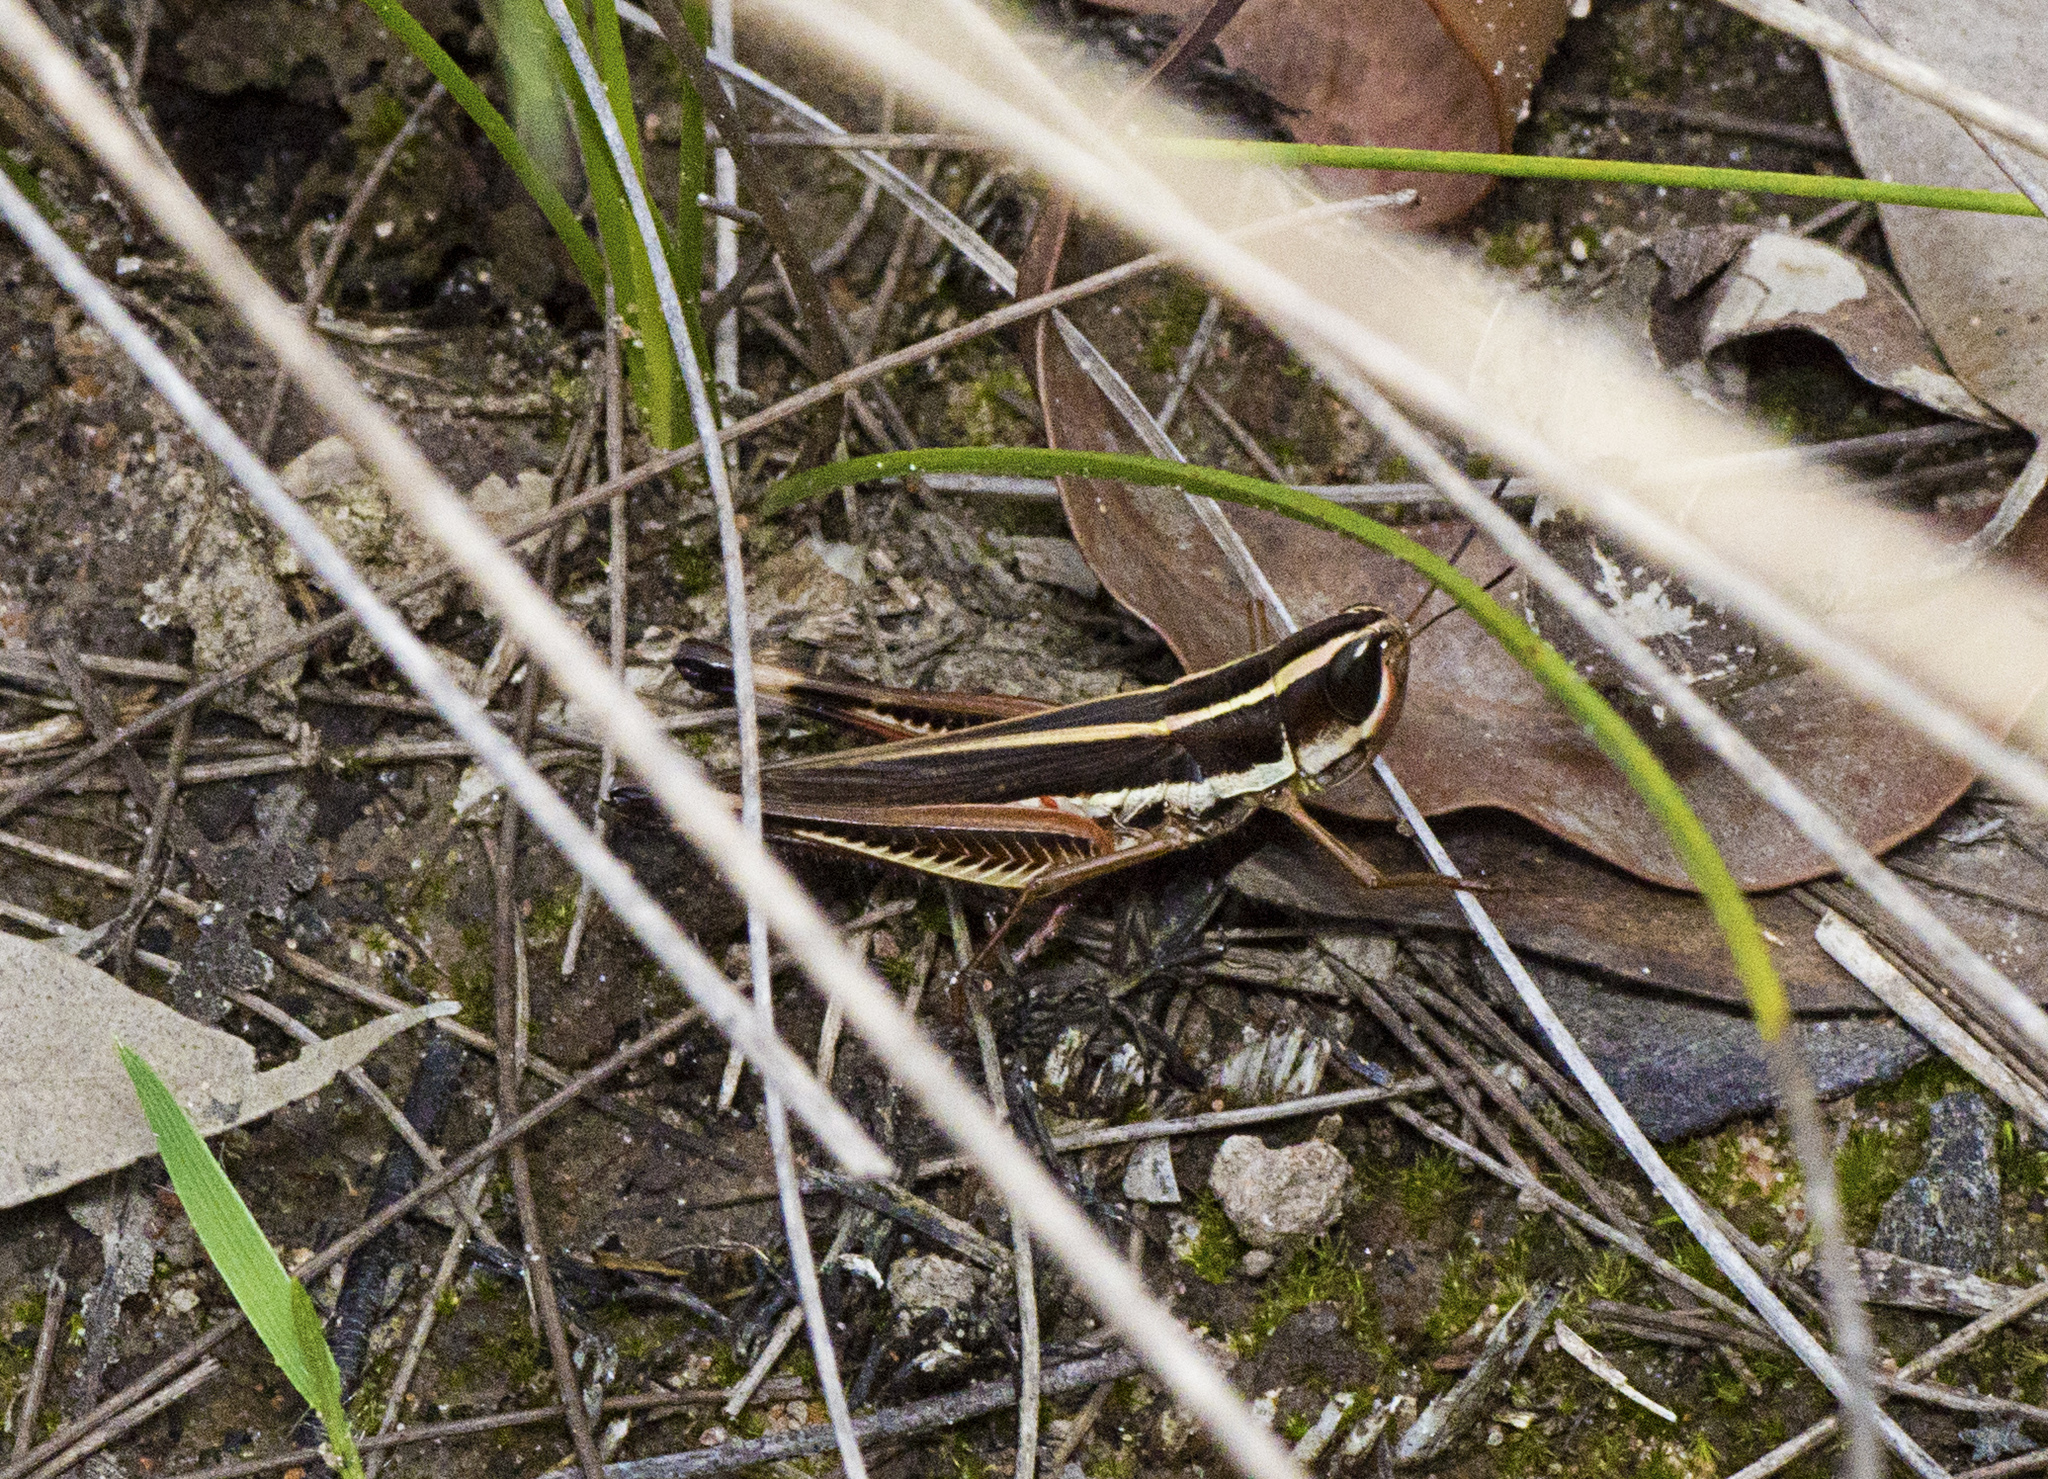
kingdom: Animalia
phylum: Arthropoda
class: Insecta
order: Orthoptera
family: Acrididae
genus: Macrotona
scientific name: Macrotona mjobergi
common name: Handsome macrotona
